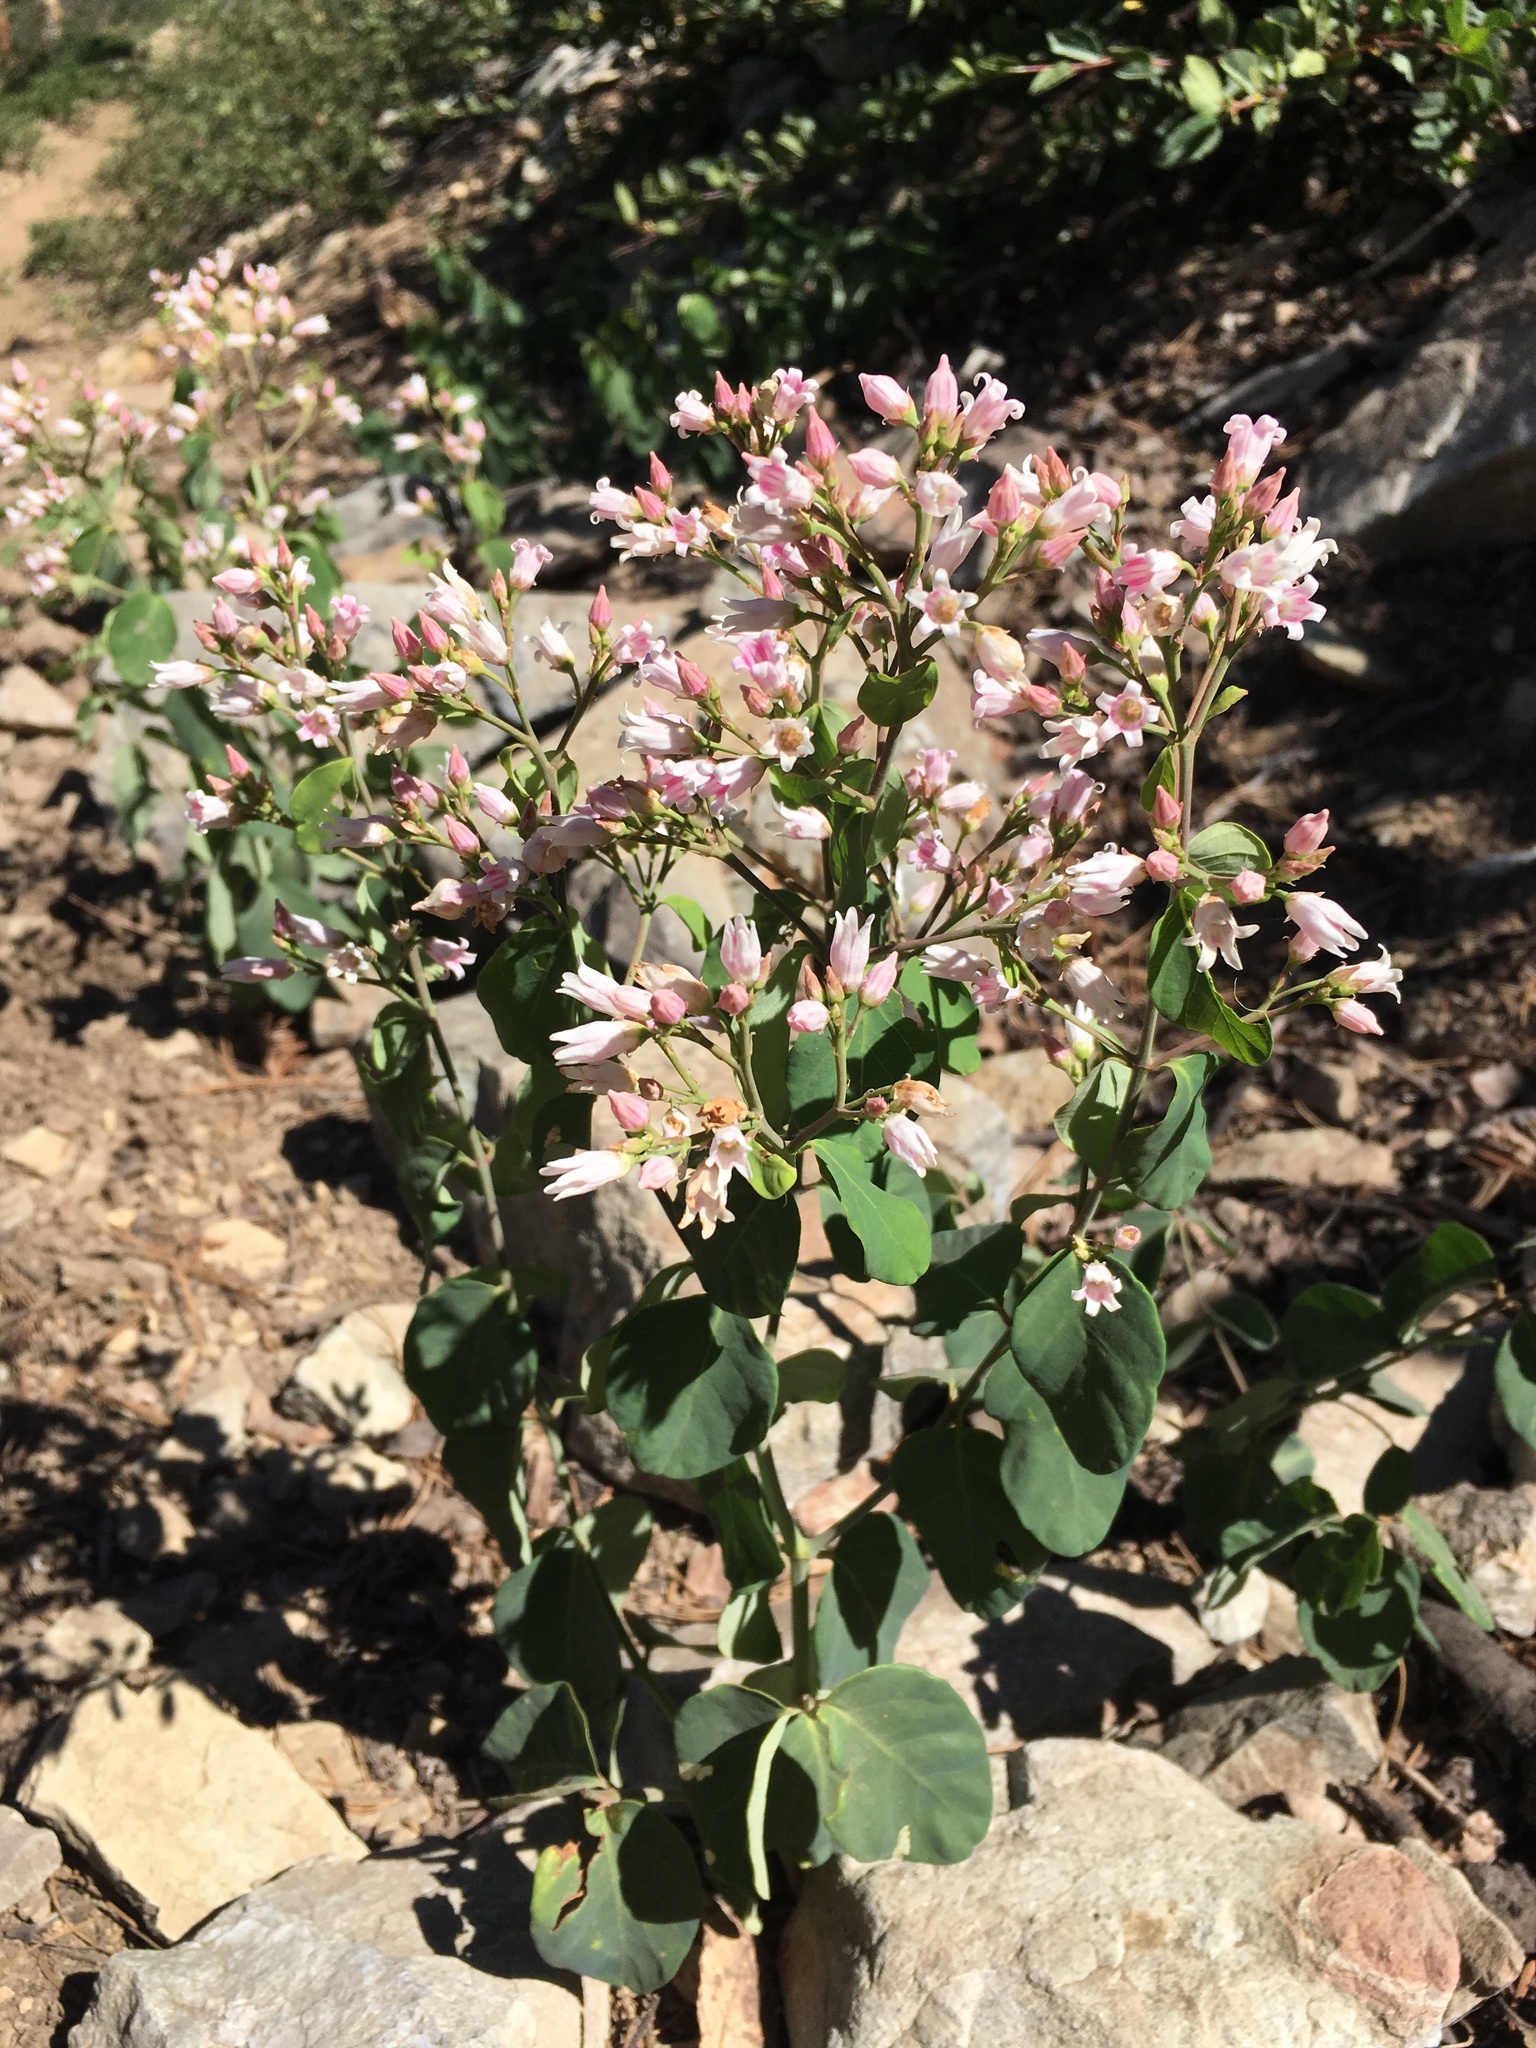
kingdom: Plantae
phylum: Tracheophyta
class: Magnoliopsida
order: Gentianales
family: Apocynaceae
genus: Apocynum
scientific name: Apocynum androsaemifolium
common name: Spreading dogbane
